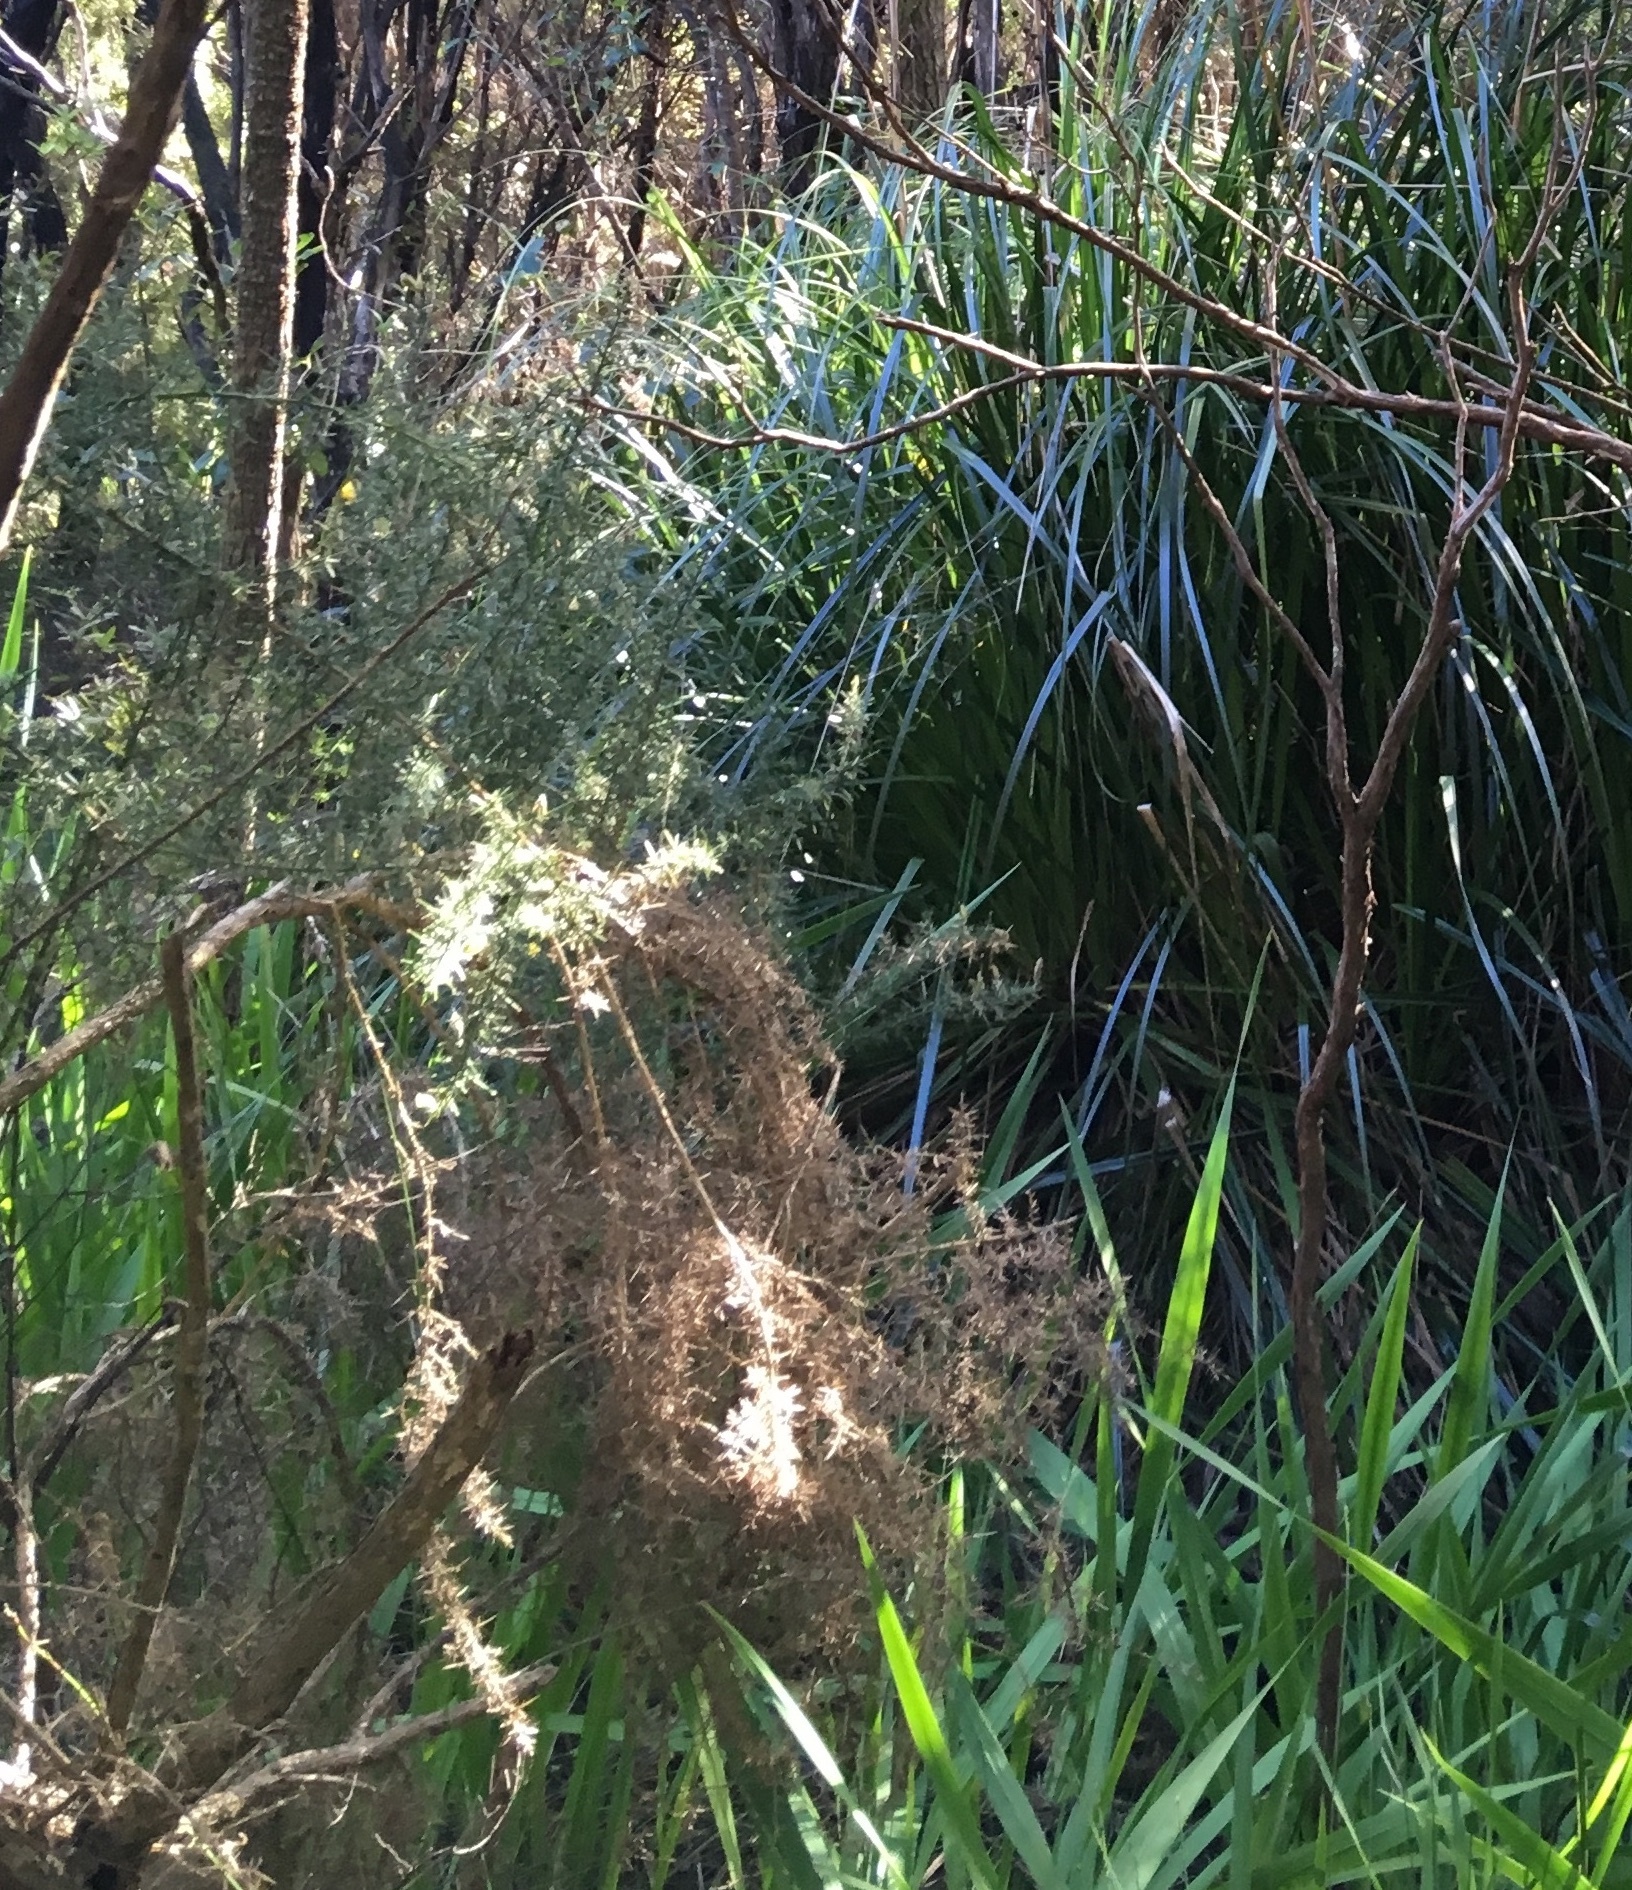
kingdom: Plantae
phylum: Tracheophyta
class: Magnoliopsida
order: Fabales
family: Fabaceae
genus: Ulex
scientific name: Ulex europaeus
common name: Common gorse
